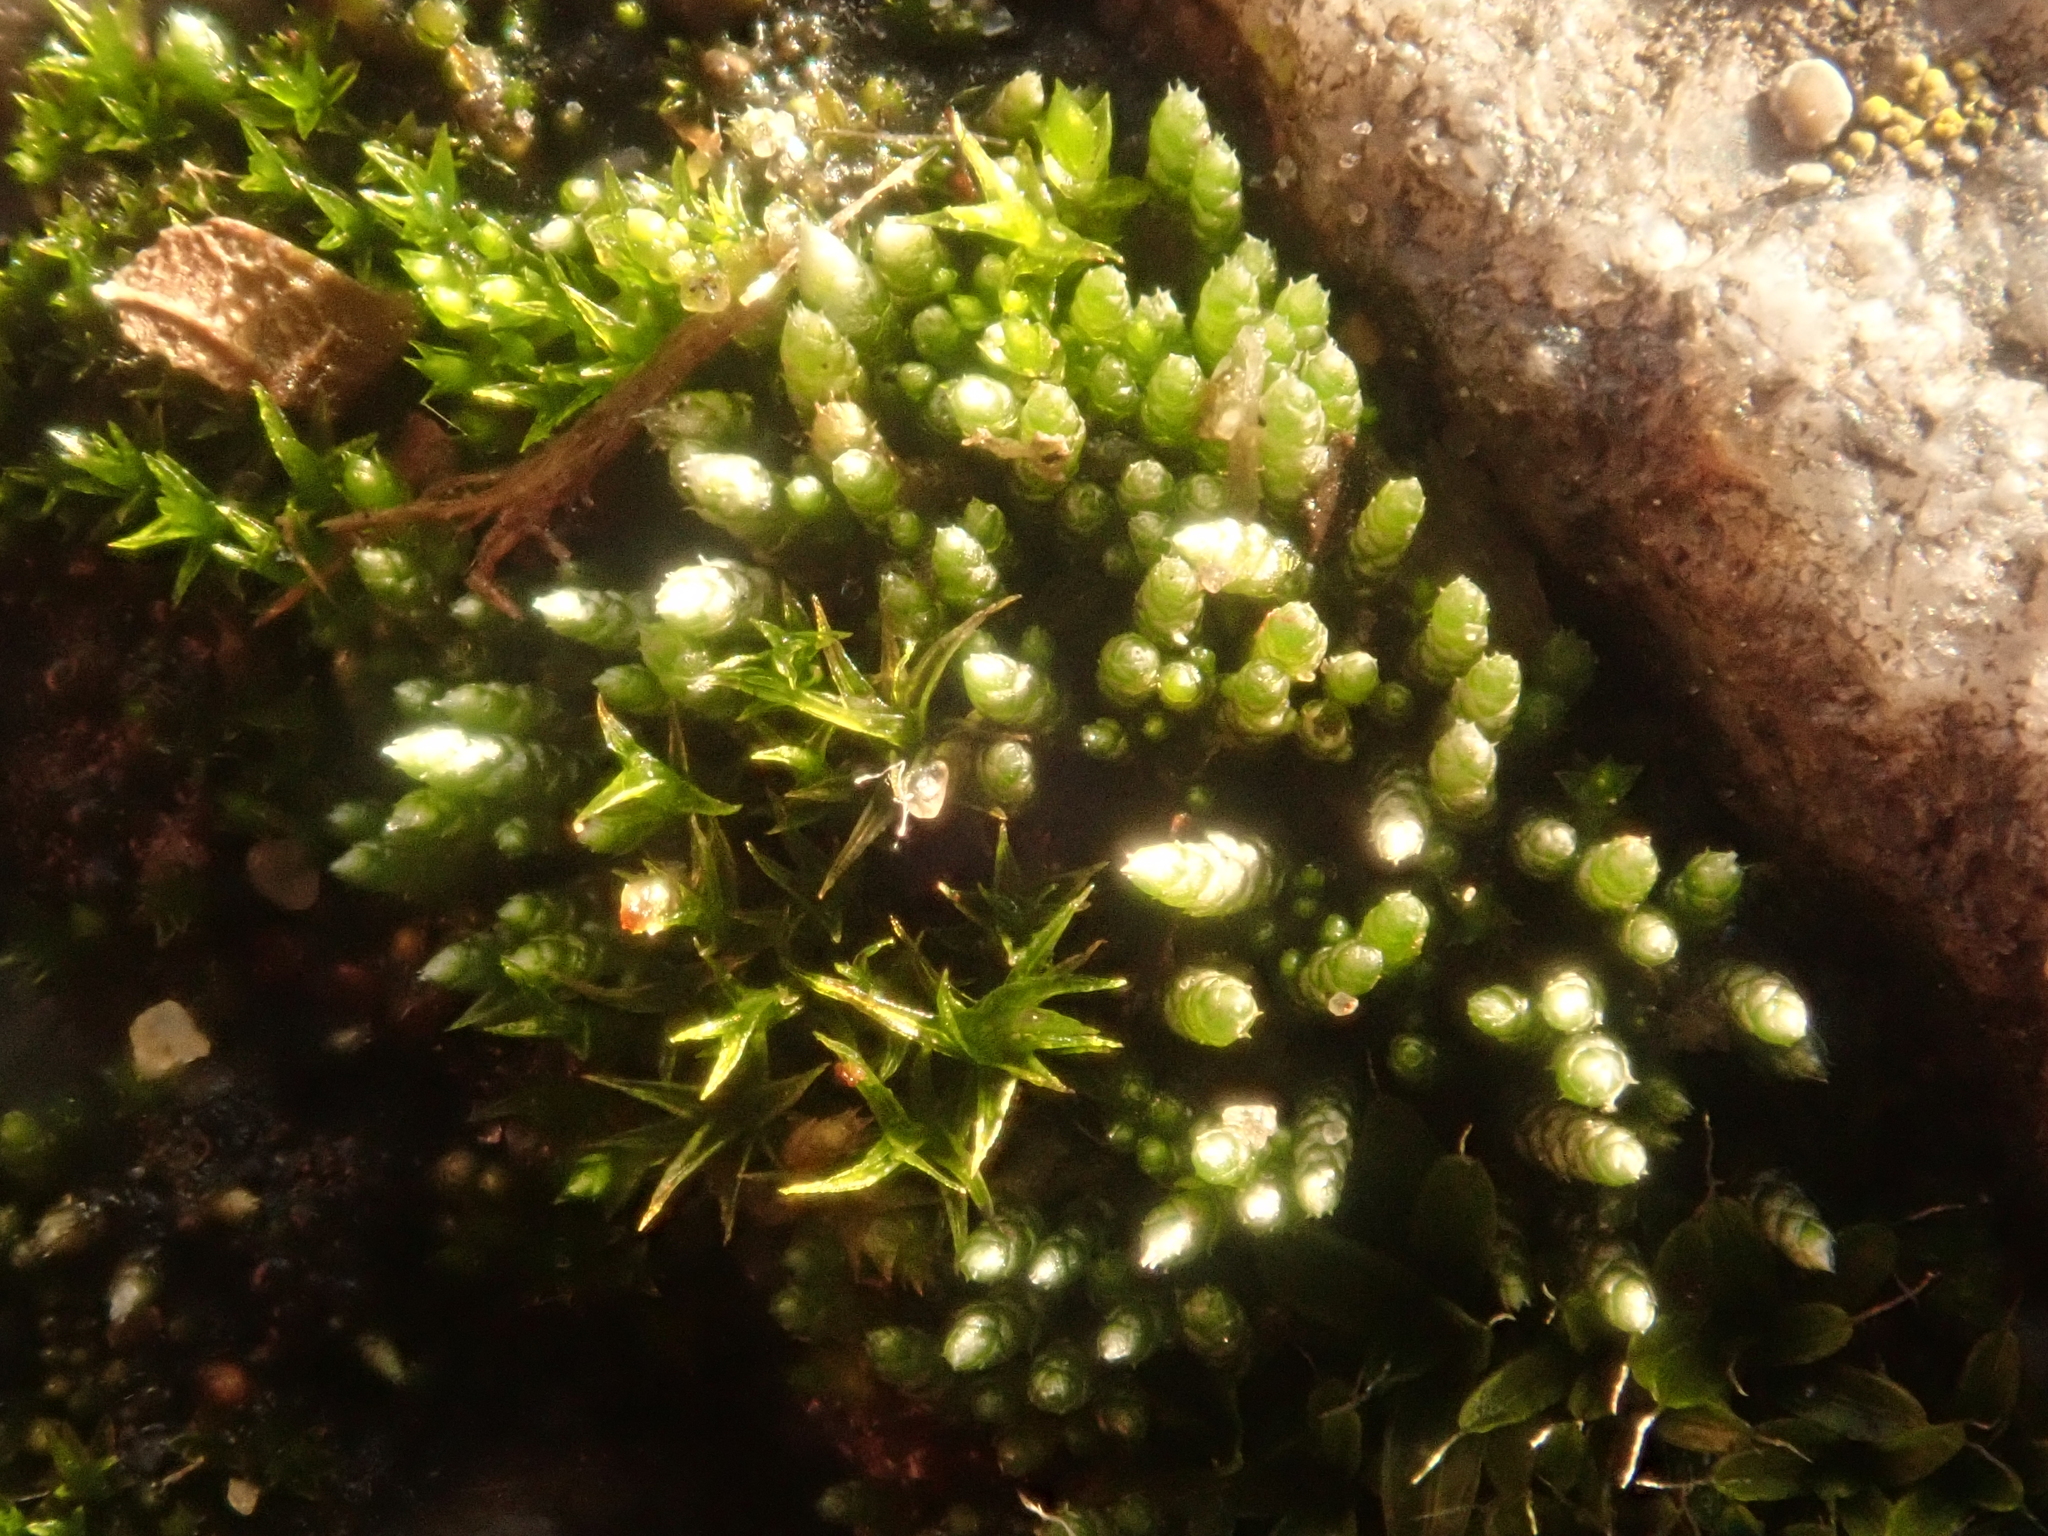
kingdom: Plantae
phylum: Bryophyta
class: Bryopsida
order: Bryales
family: Bryaceae
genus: Bryum
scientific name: Bryum argenteum
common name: Silver-moss
